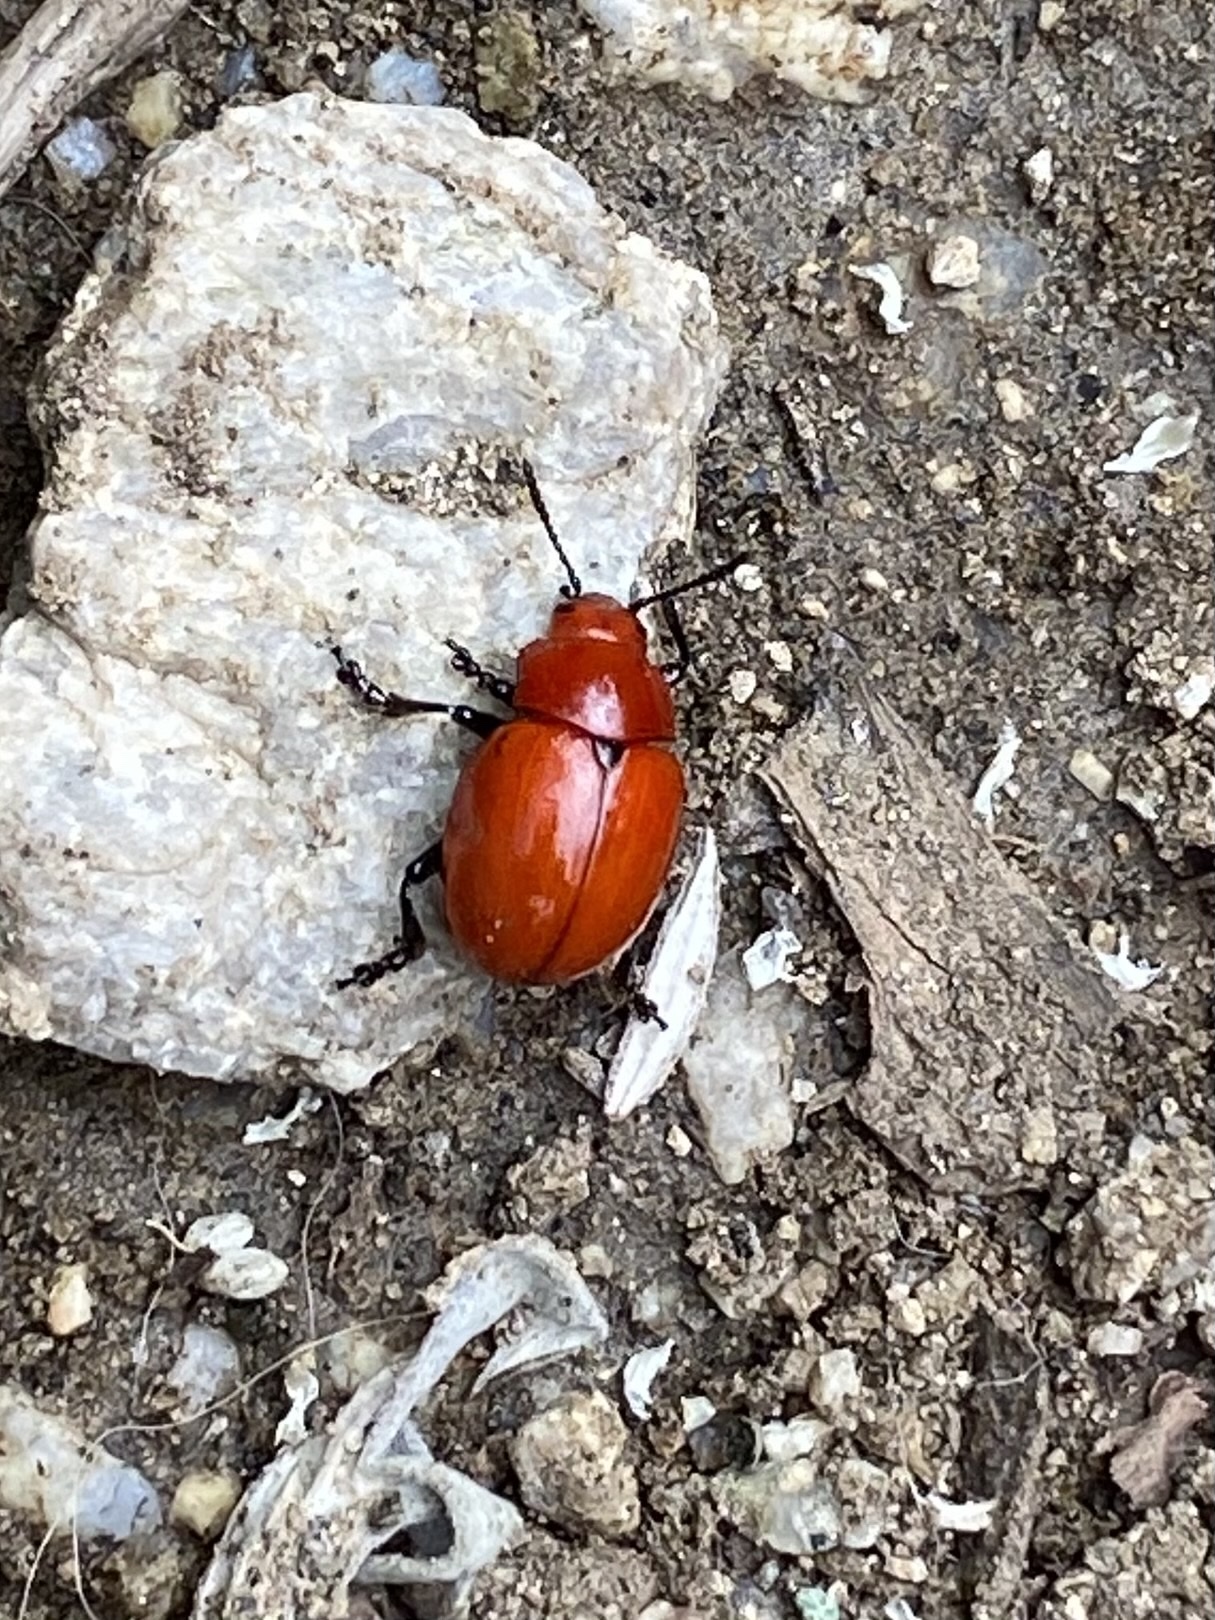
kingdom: Animalia
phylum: Arthropoda
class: Insecta
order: Coleoptera
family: Chrysomelidae
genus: Leptinotarsa
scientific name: Leptinotarsa rubiginosa
